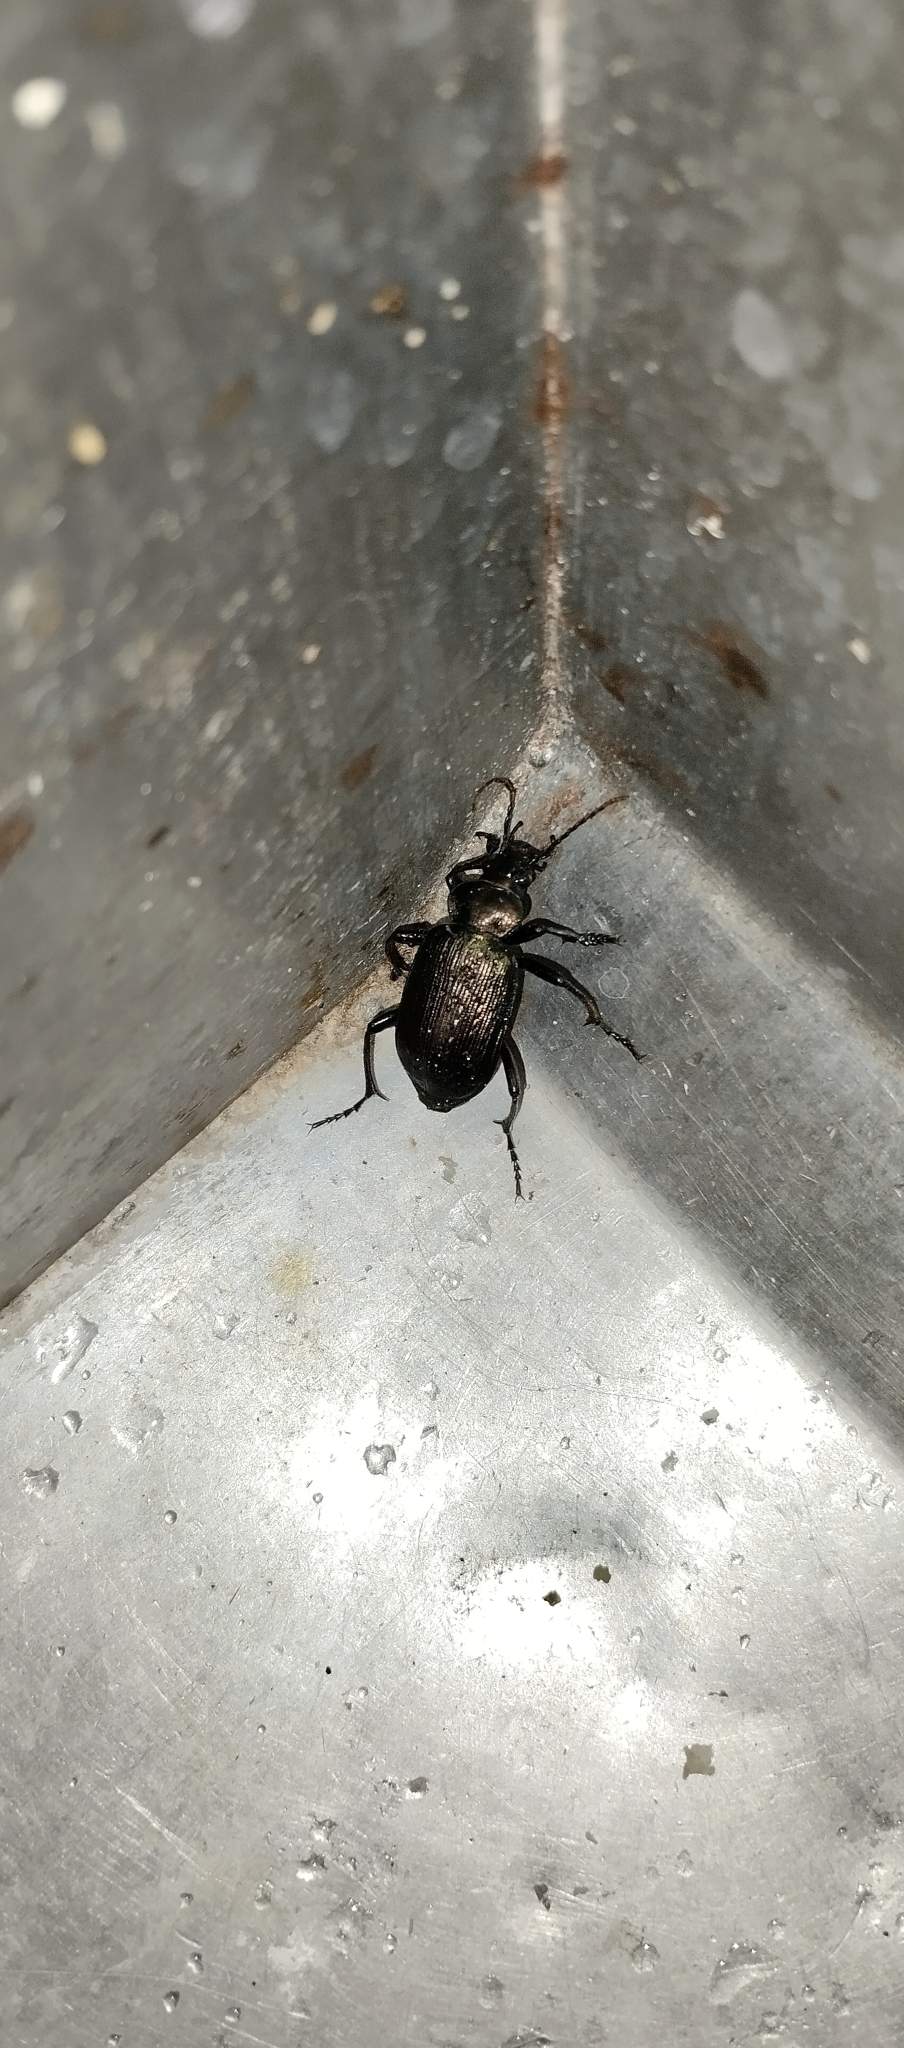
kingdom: Animalia
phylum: Arthropoda
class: Insecta
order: Coleoptera
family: Carabidae
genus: Calosoma
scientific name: Calosoma alternans
